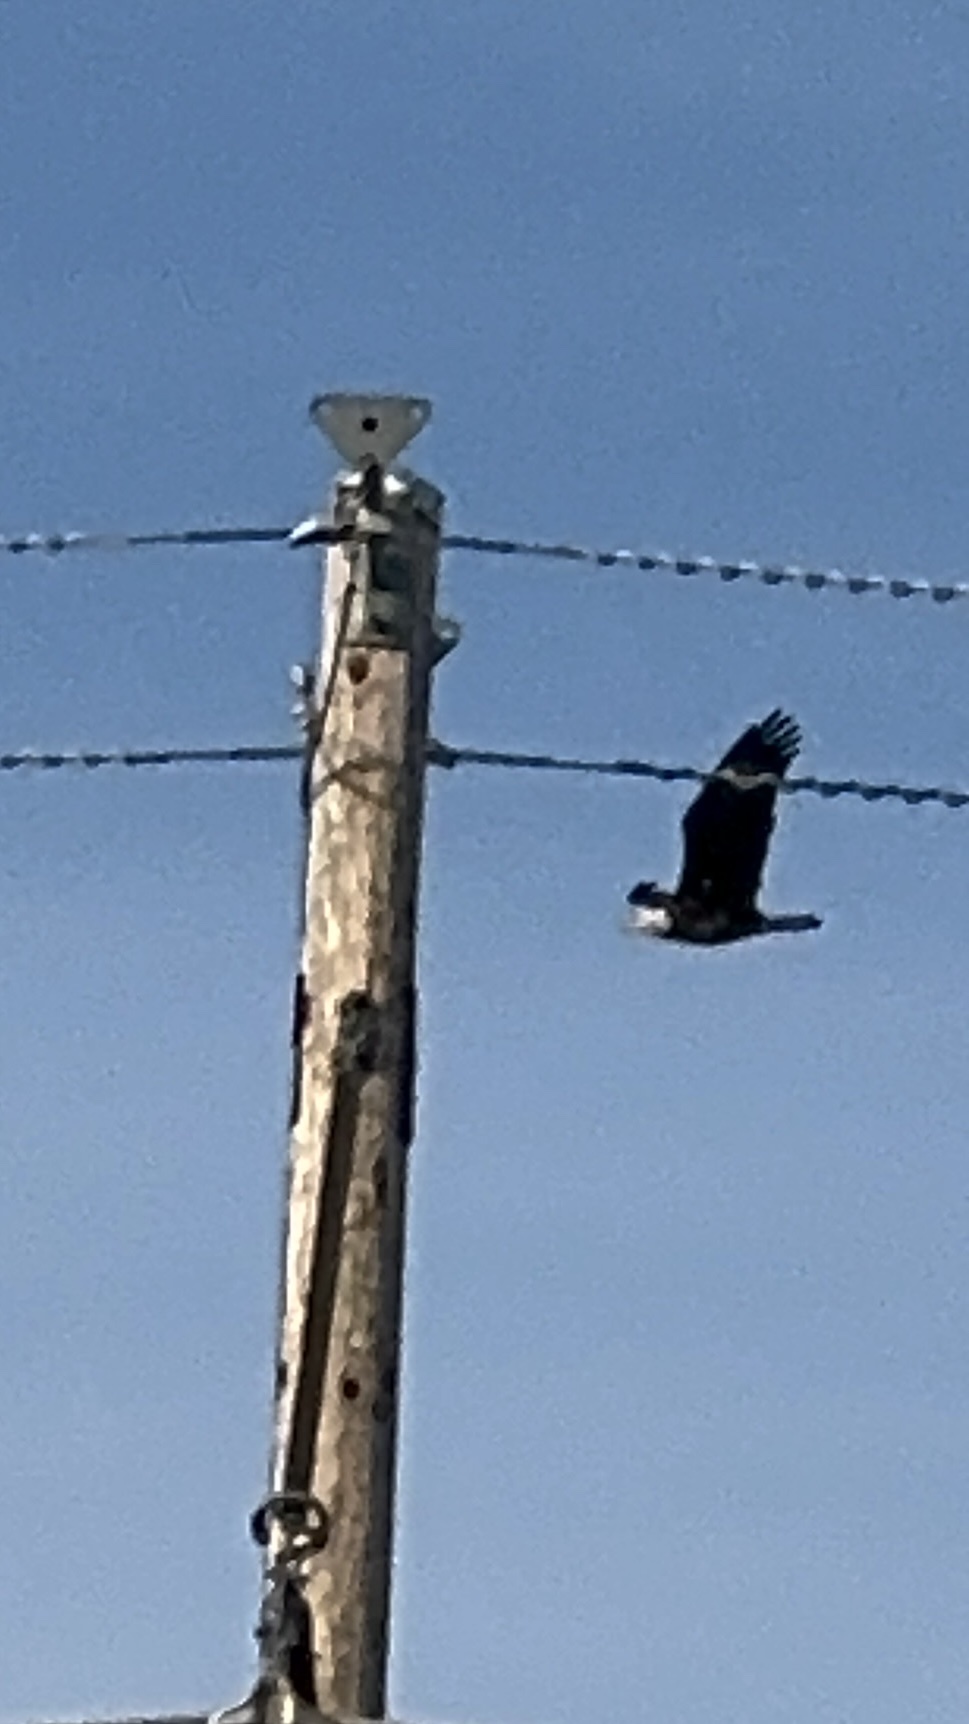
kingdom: Animalia
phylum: Chordata
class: Aves
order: Accipitriformes
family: Accipitridae
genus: Haliaeetus
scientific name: Haliaeetus leucocephalus
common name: Bald eagle
